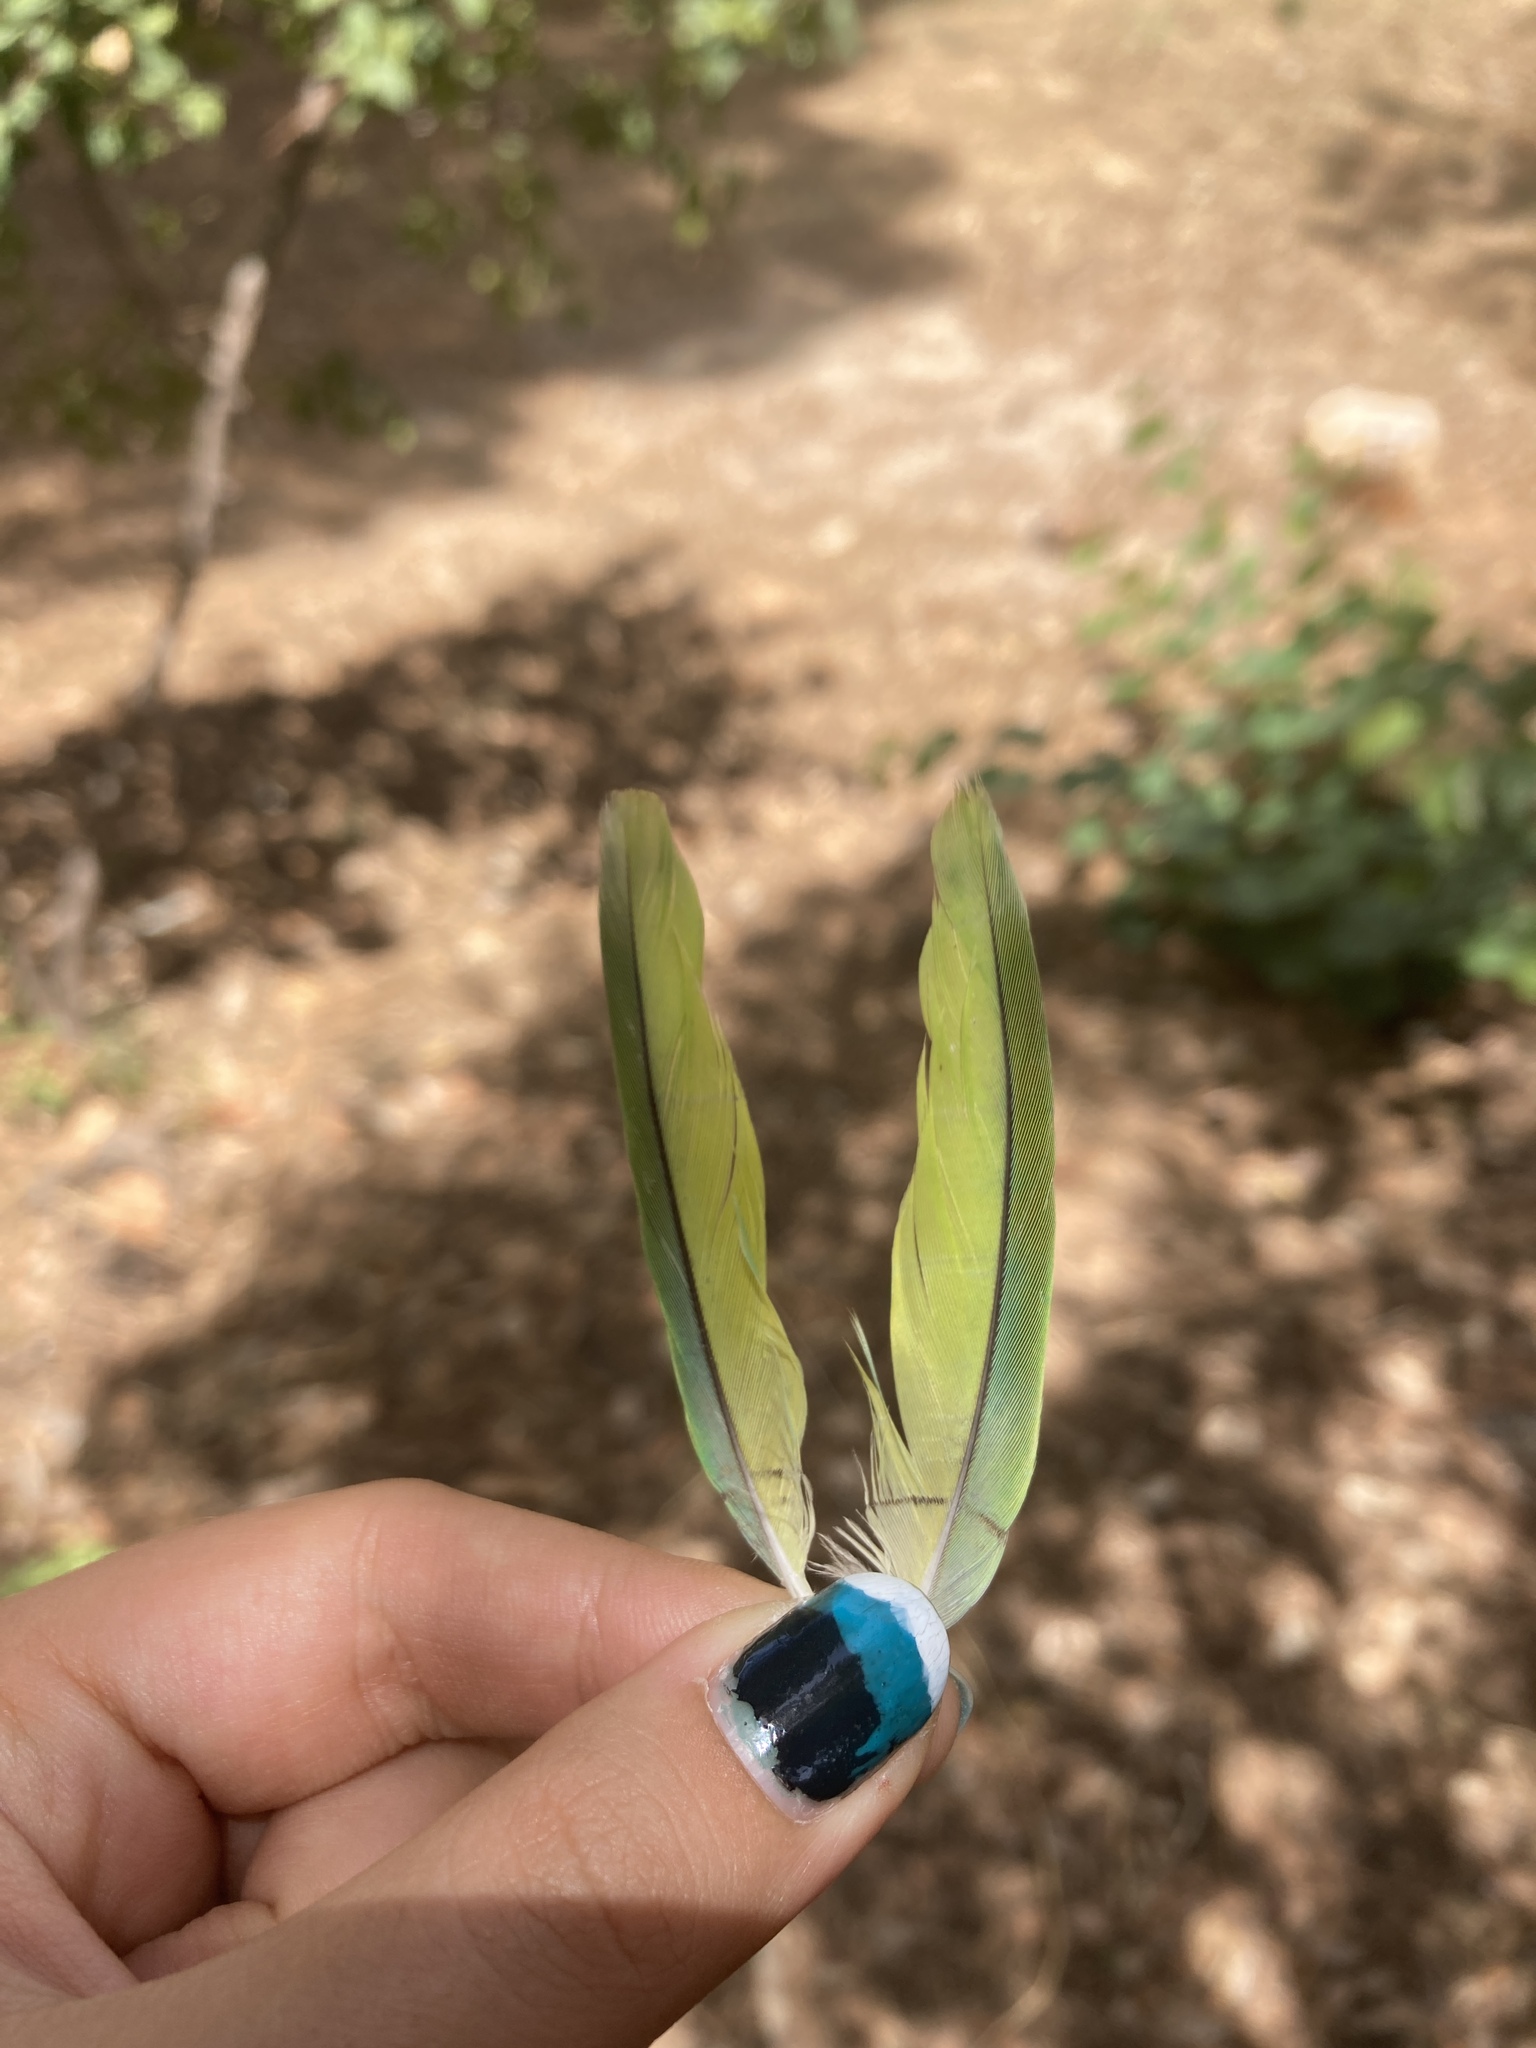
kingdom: Animalia
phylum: Chordata
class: Aves
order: Psittaciformes
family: Psittacidae
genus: Myiopsitta
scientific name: Myiopsitta monachus
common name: Monk parakeet
